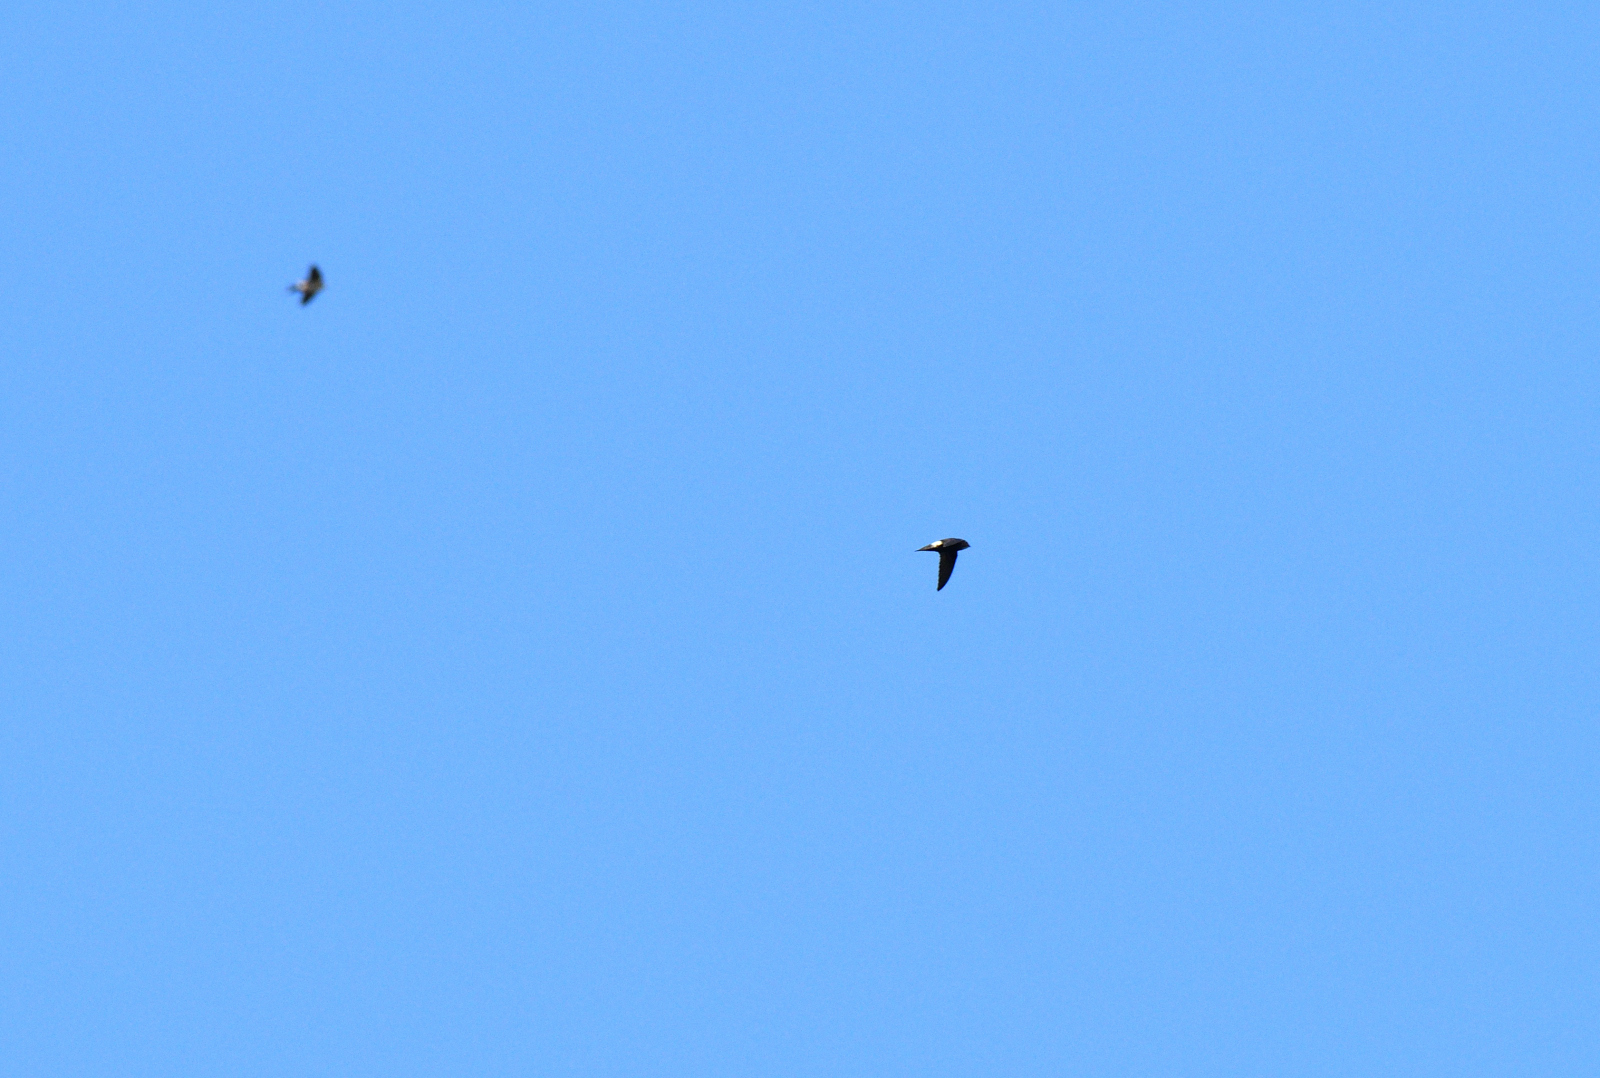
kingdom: Animalia
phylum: Chordata
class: Aves
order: Apodiformes
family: Apodidae
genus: Apus
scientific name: Apus affinis
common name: Little swift
